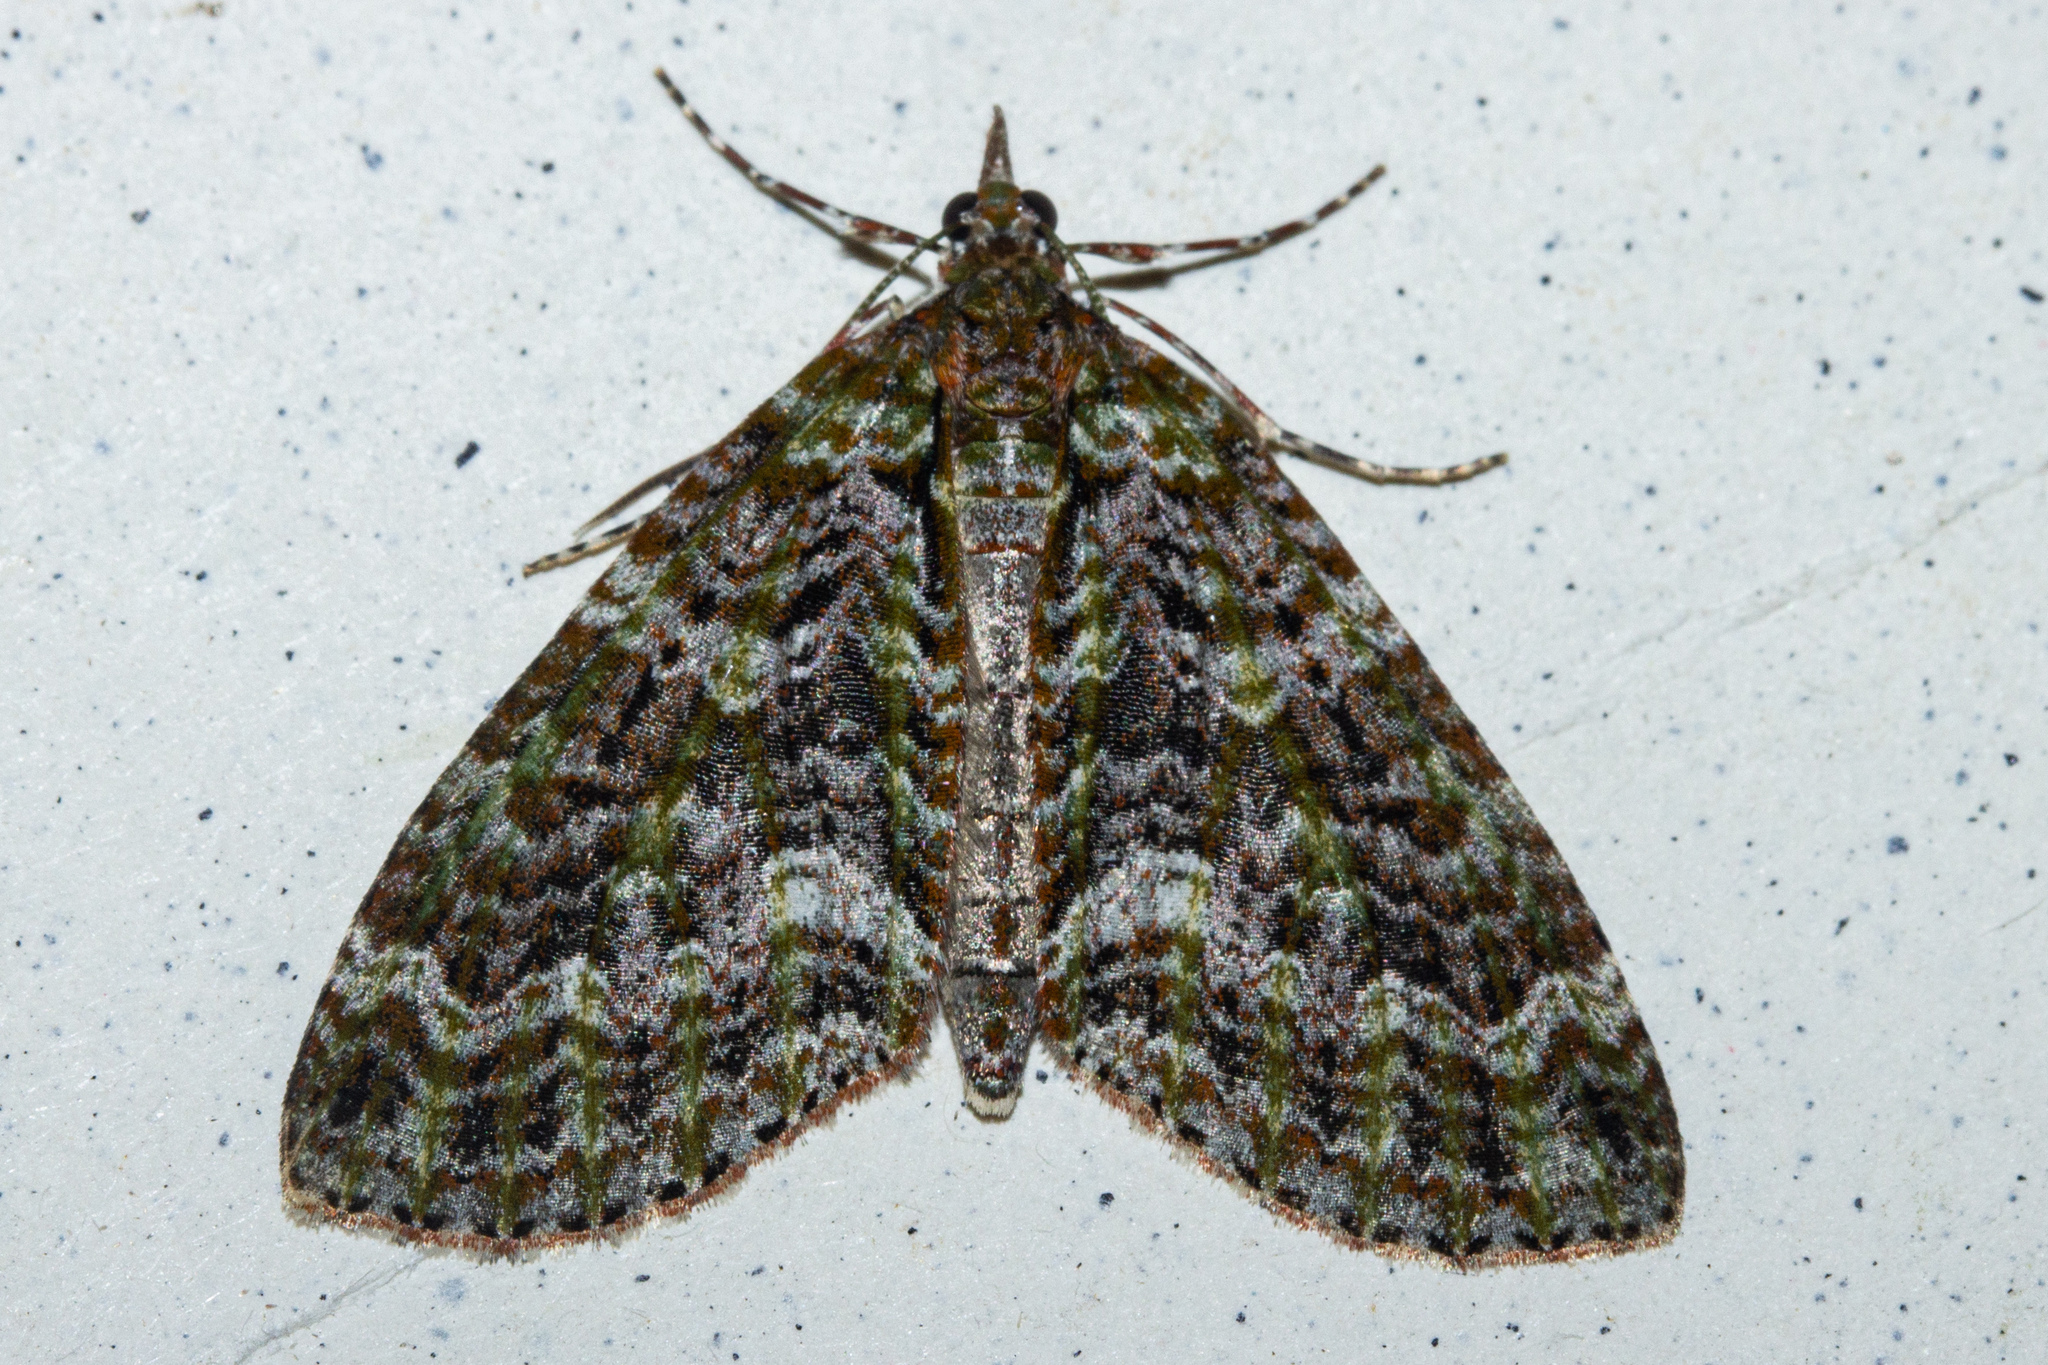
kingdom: Animalia
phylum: Arthropoda
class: Insecta
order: Lepidoptera
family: Geometridae
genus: Tatosoma
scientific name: Tatosoma agrionata
